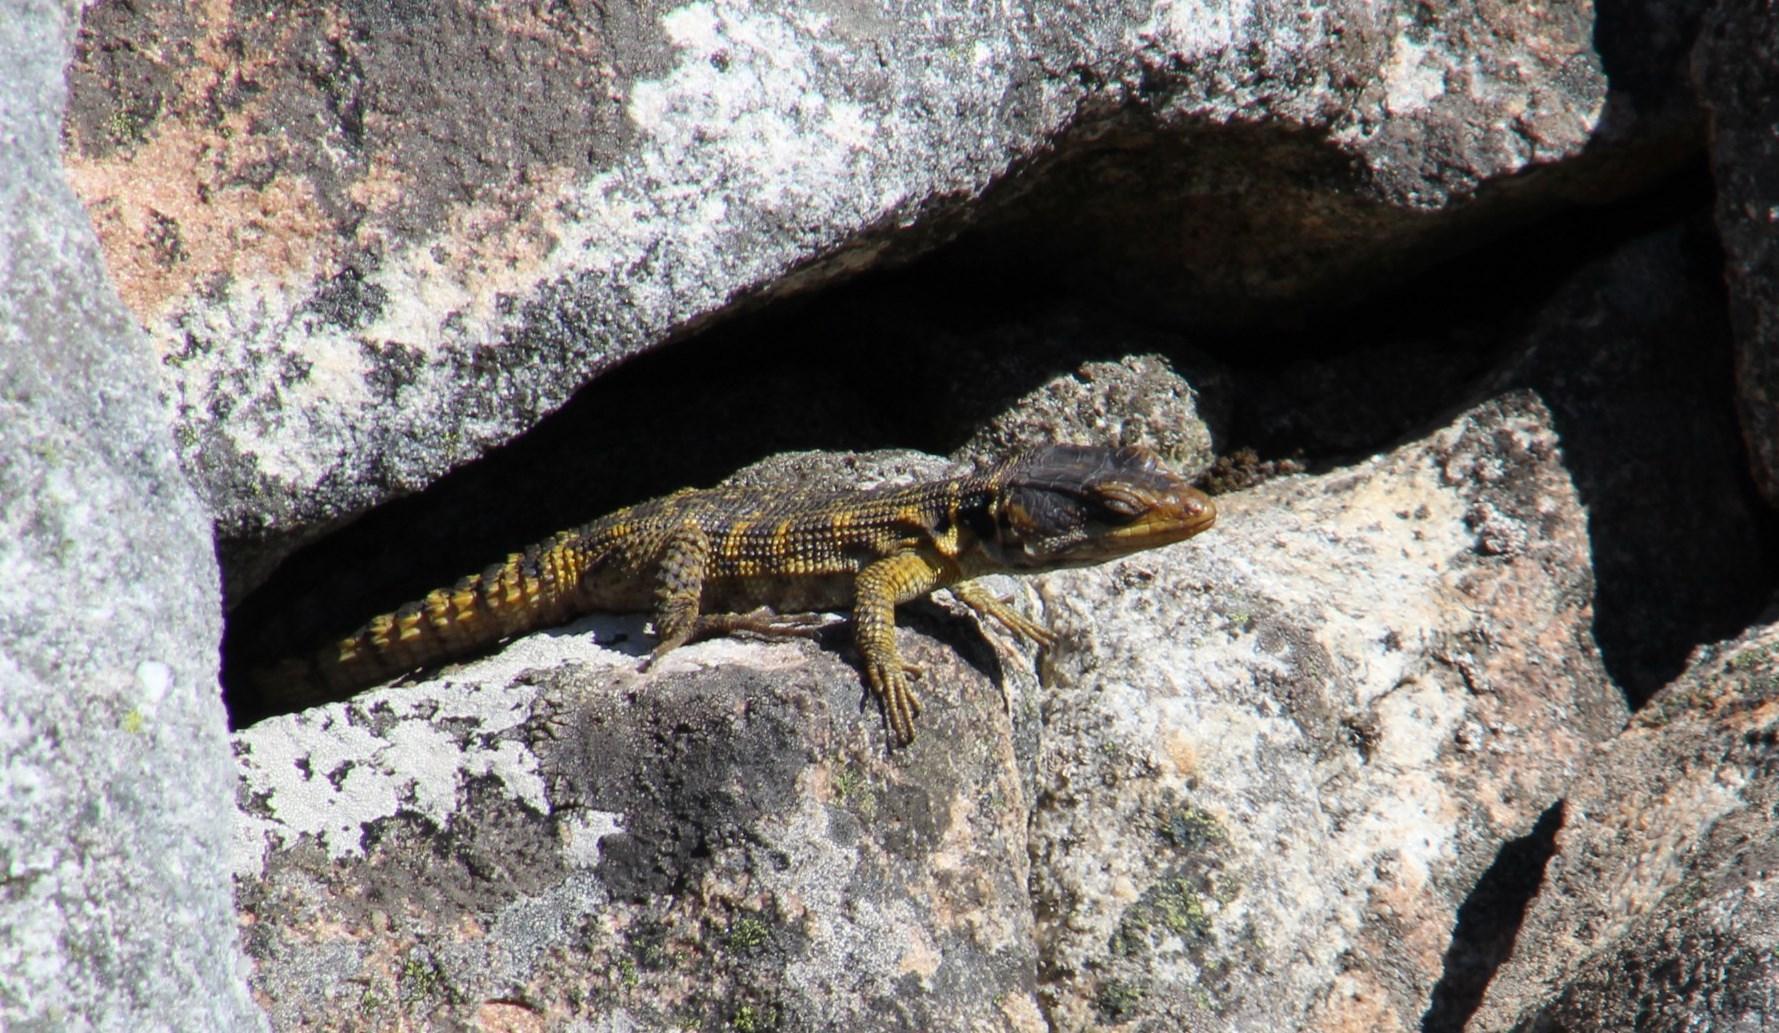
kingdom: Animalia
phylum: Chordata
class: Squamata
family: Cordylidae
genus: Pseudocordylus
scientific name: Pseudocordylus microlepidotus
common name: Cape crag lizard
